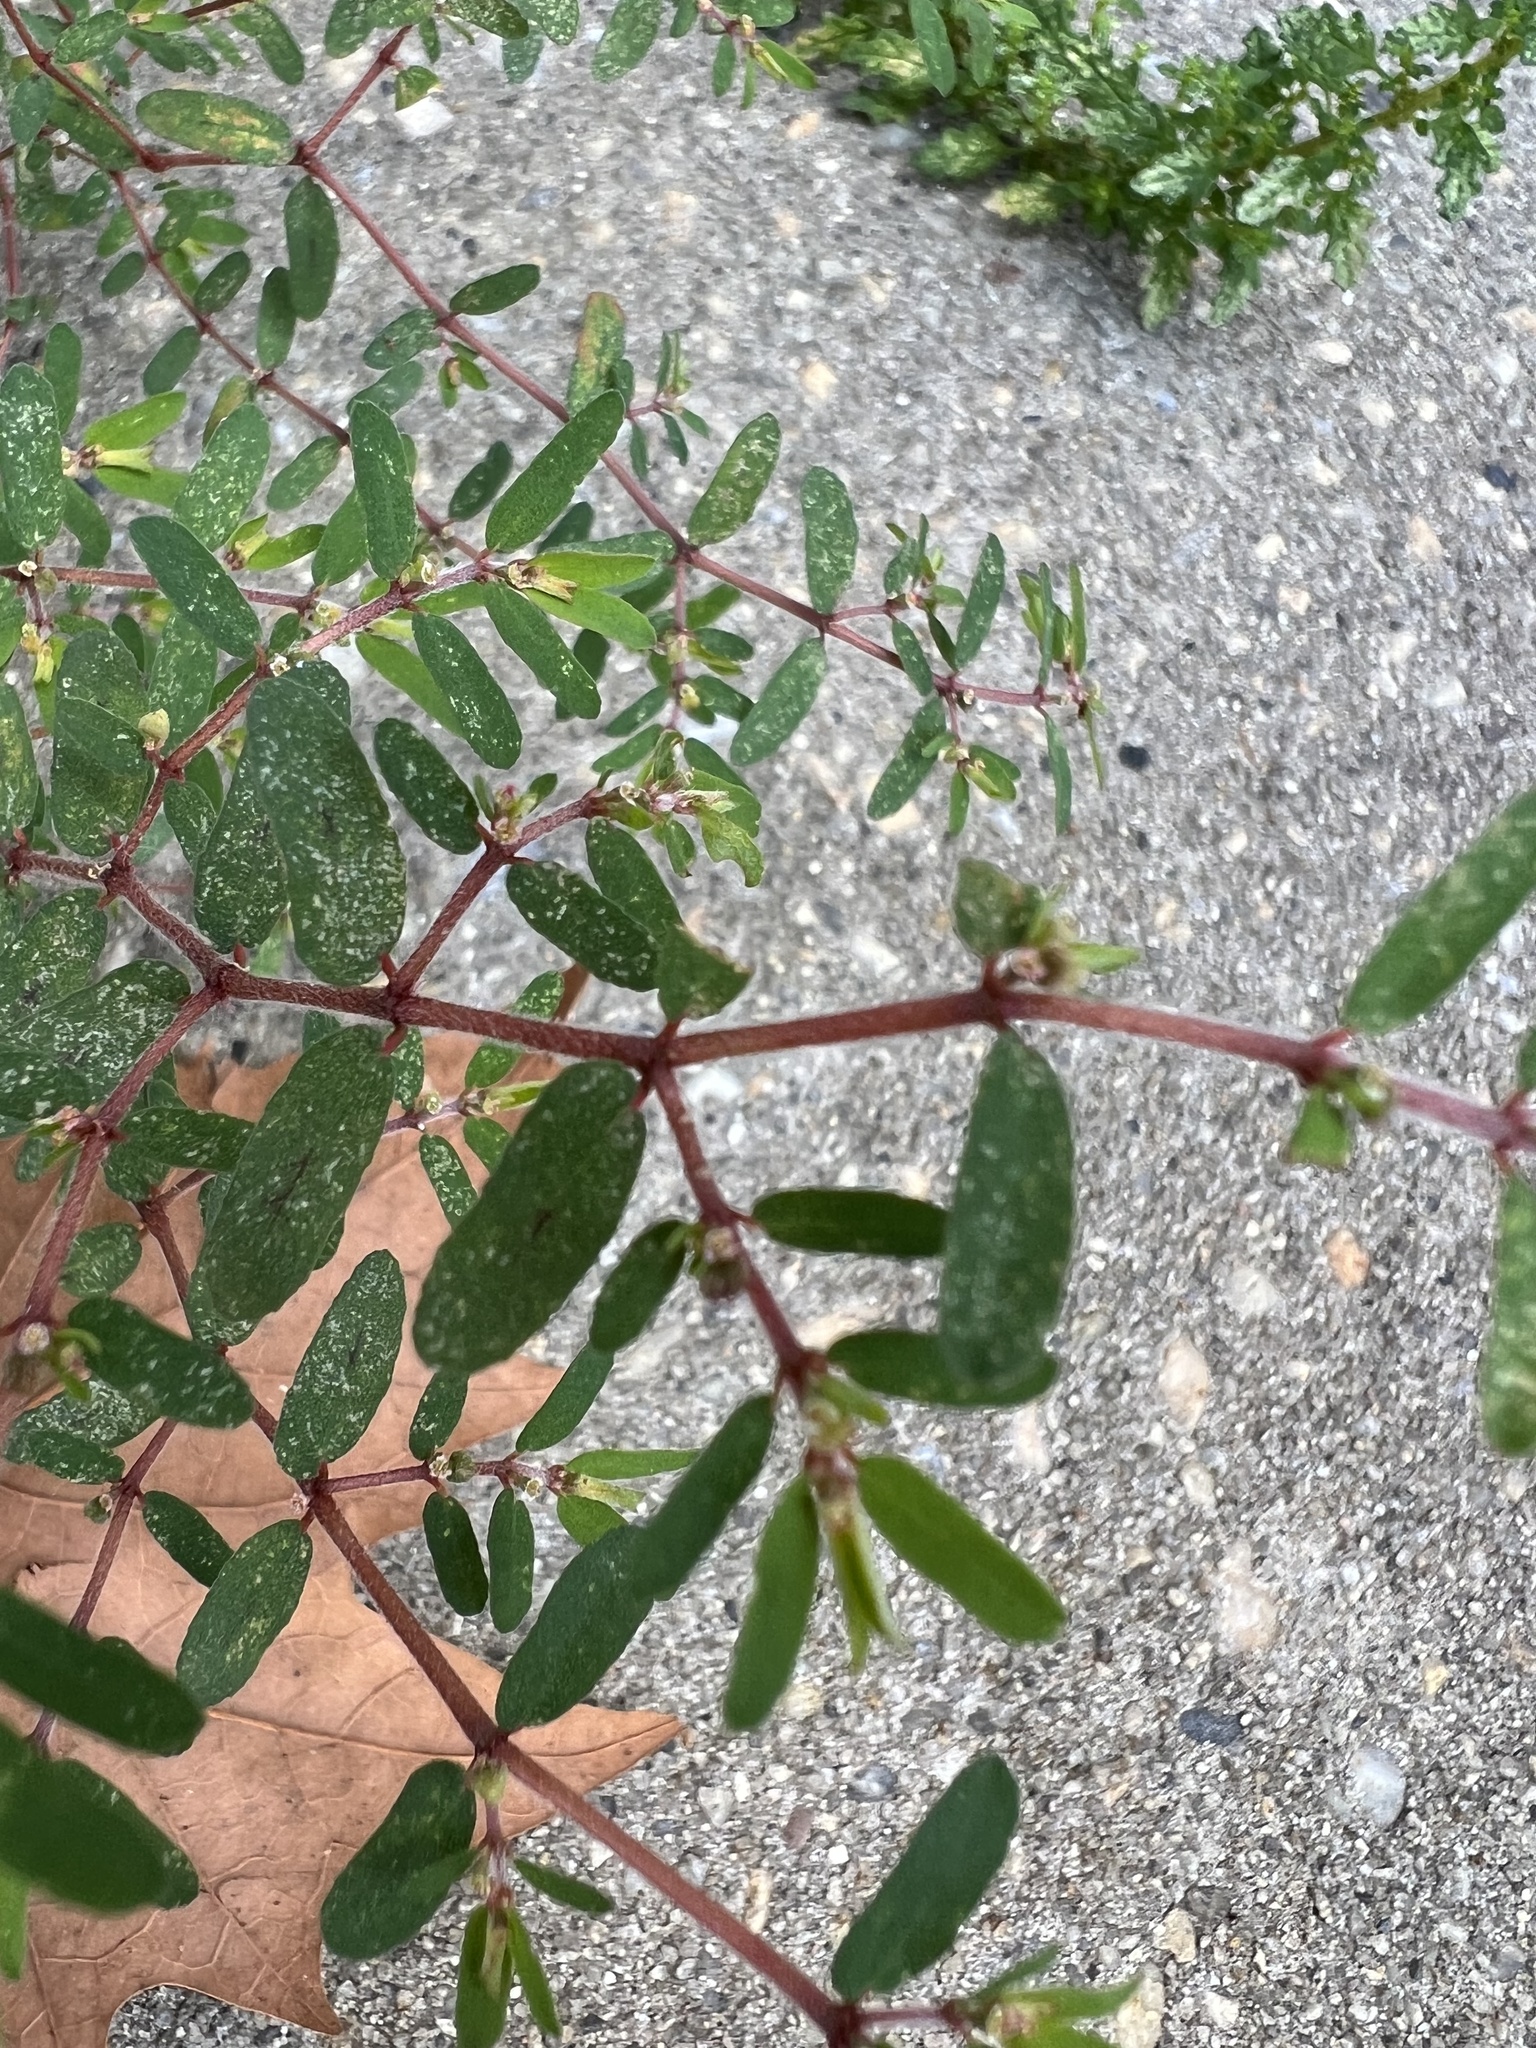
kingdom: Plantae
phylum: Tracheophyta
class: Magnoliopsida
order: Malpighiales
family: Euphorbiaceae
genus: Euphorbia
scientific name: Euphorbia maculata
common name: Spotted spurge
